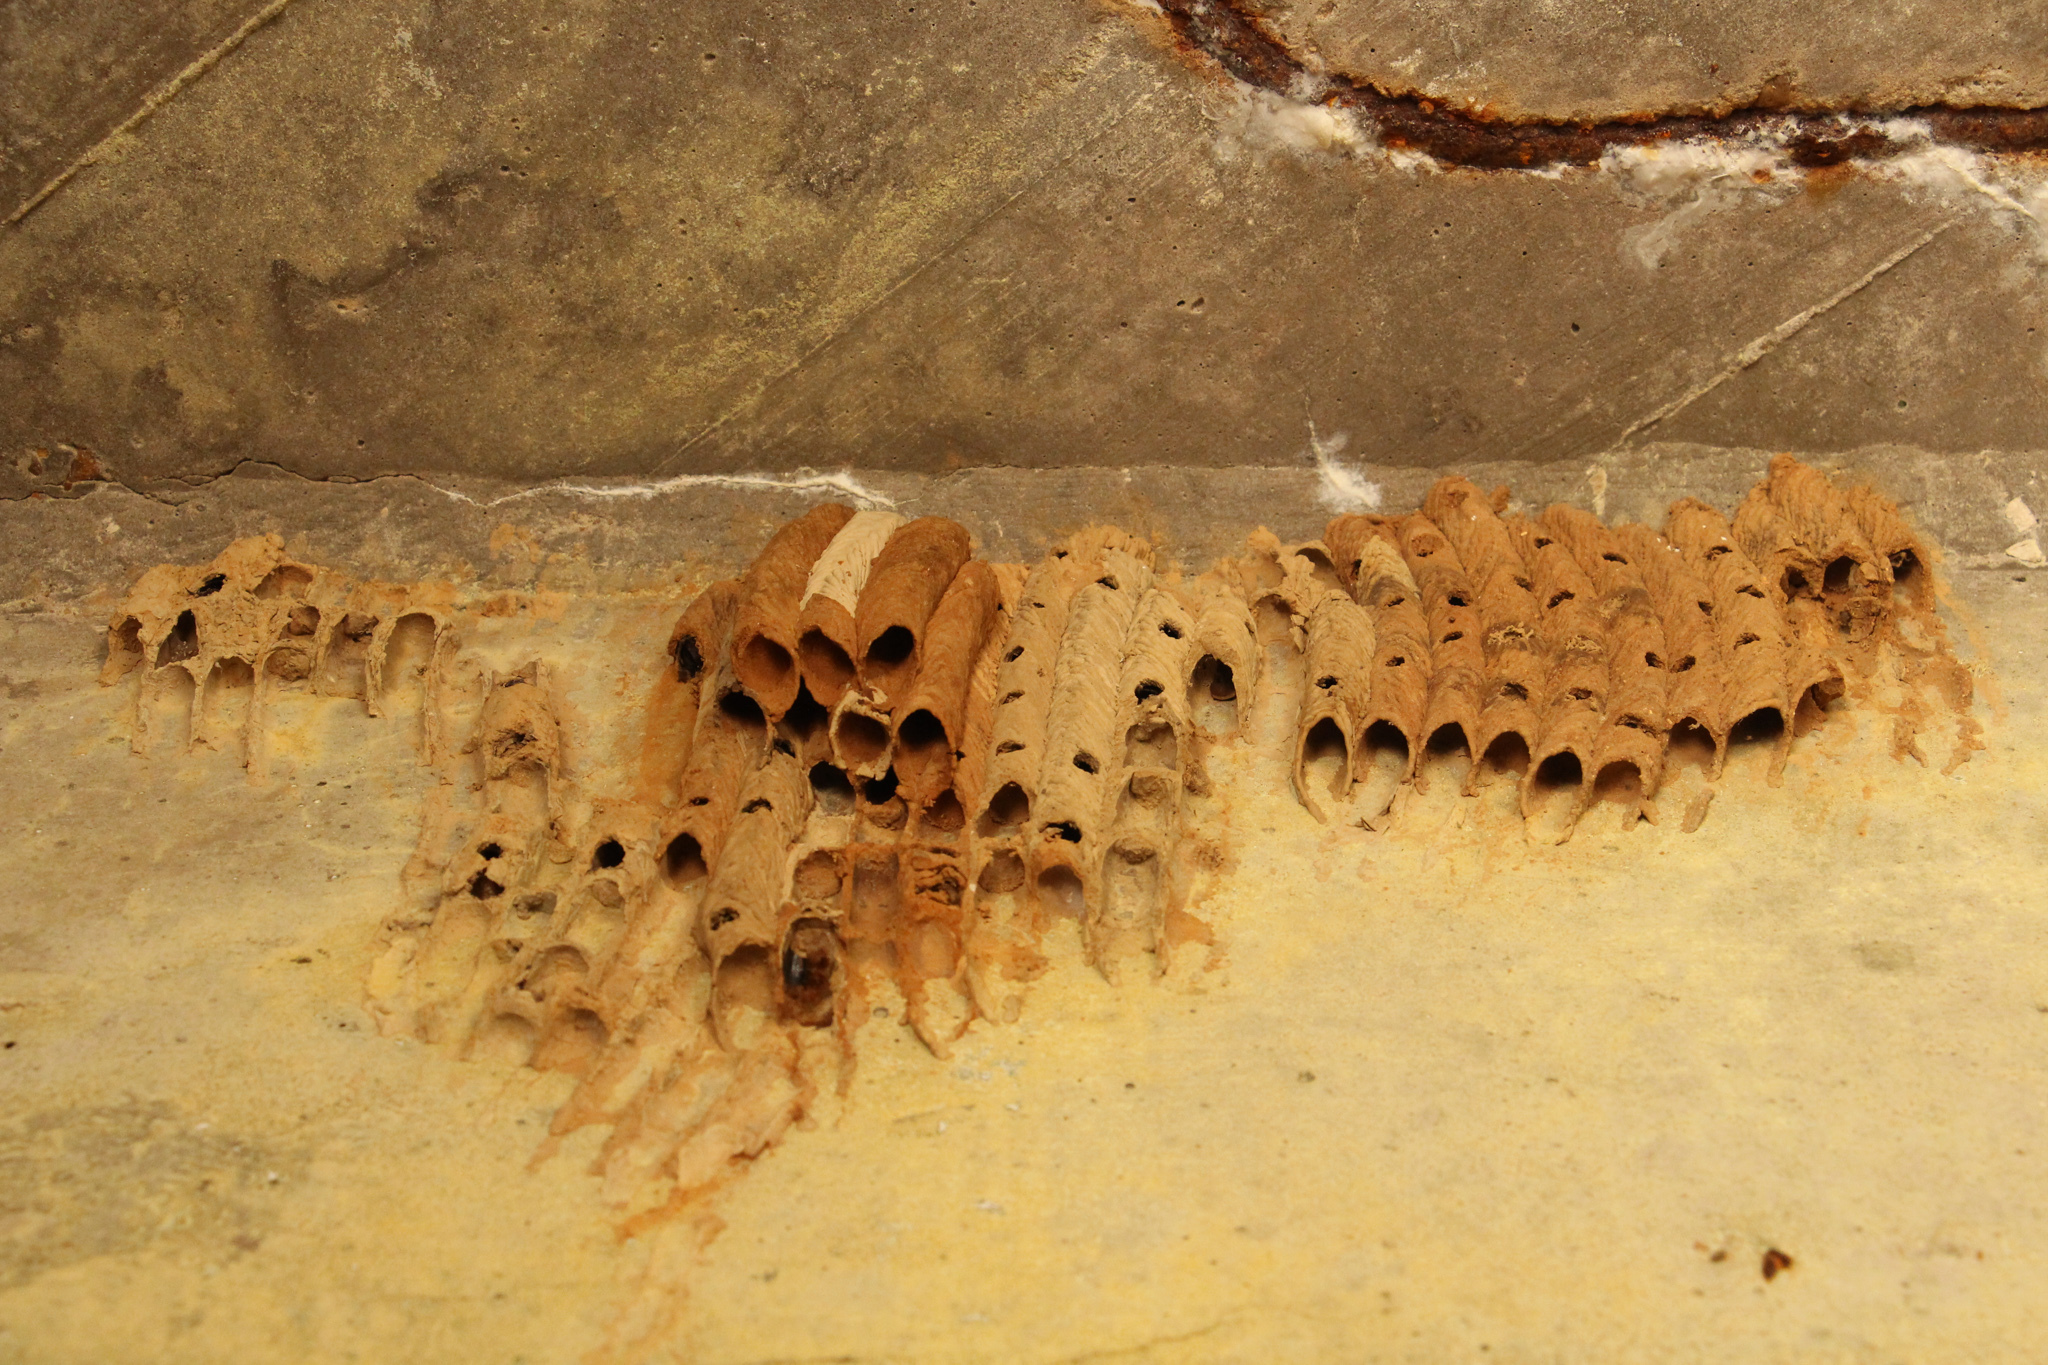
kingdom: Animalia
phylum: Arthropoda
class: Insecta
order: Hymenoptera
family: Crabronidae
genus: Trypoxylon
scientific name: Trypoxylon politum
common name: Organ-pipe mud-dauber wasp
